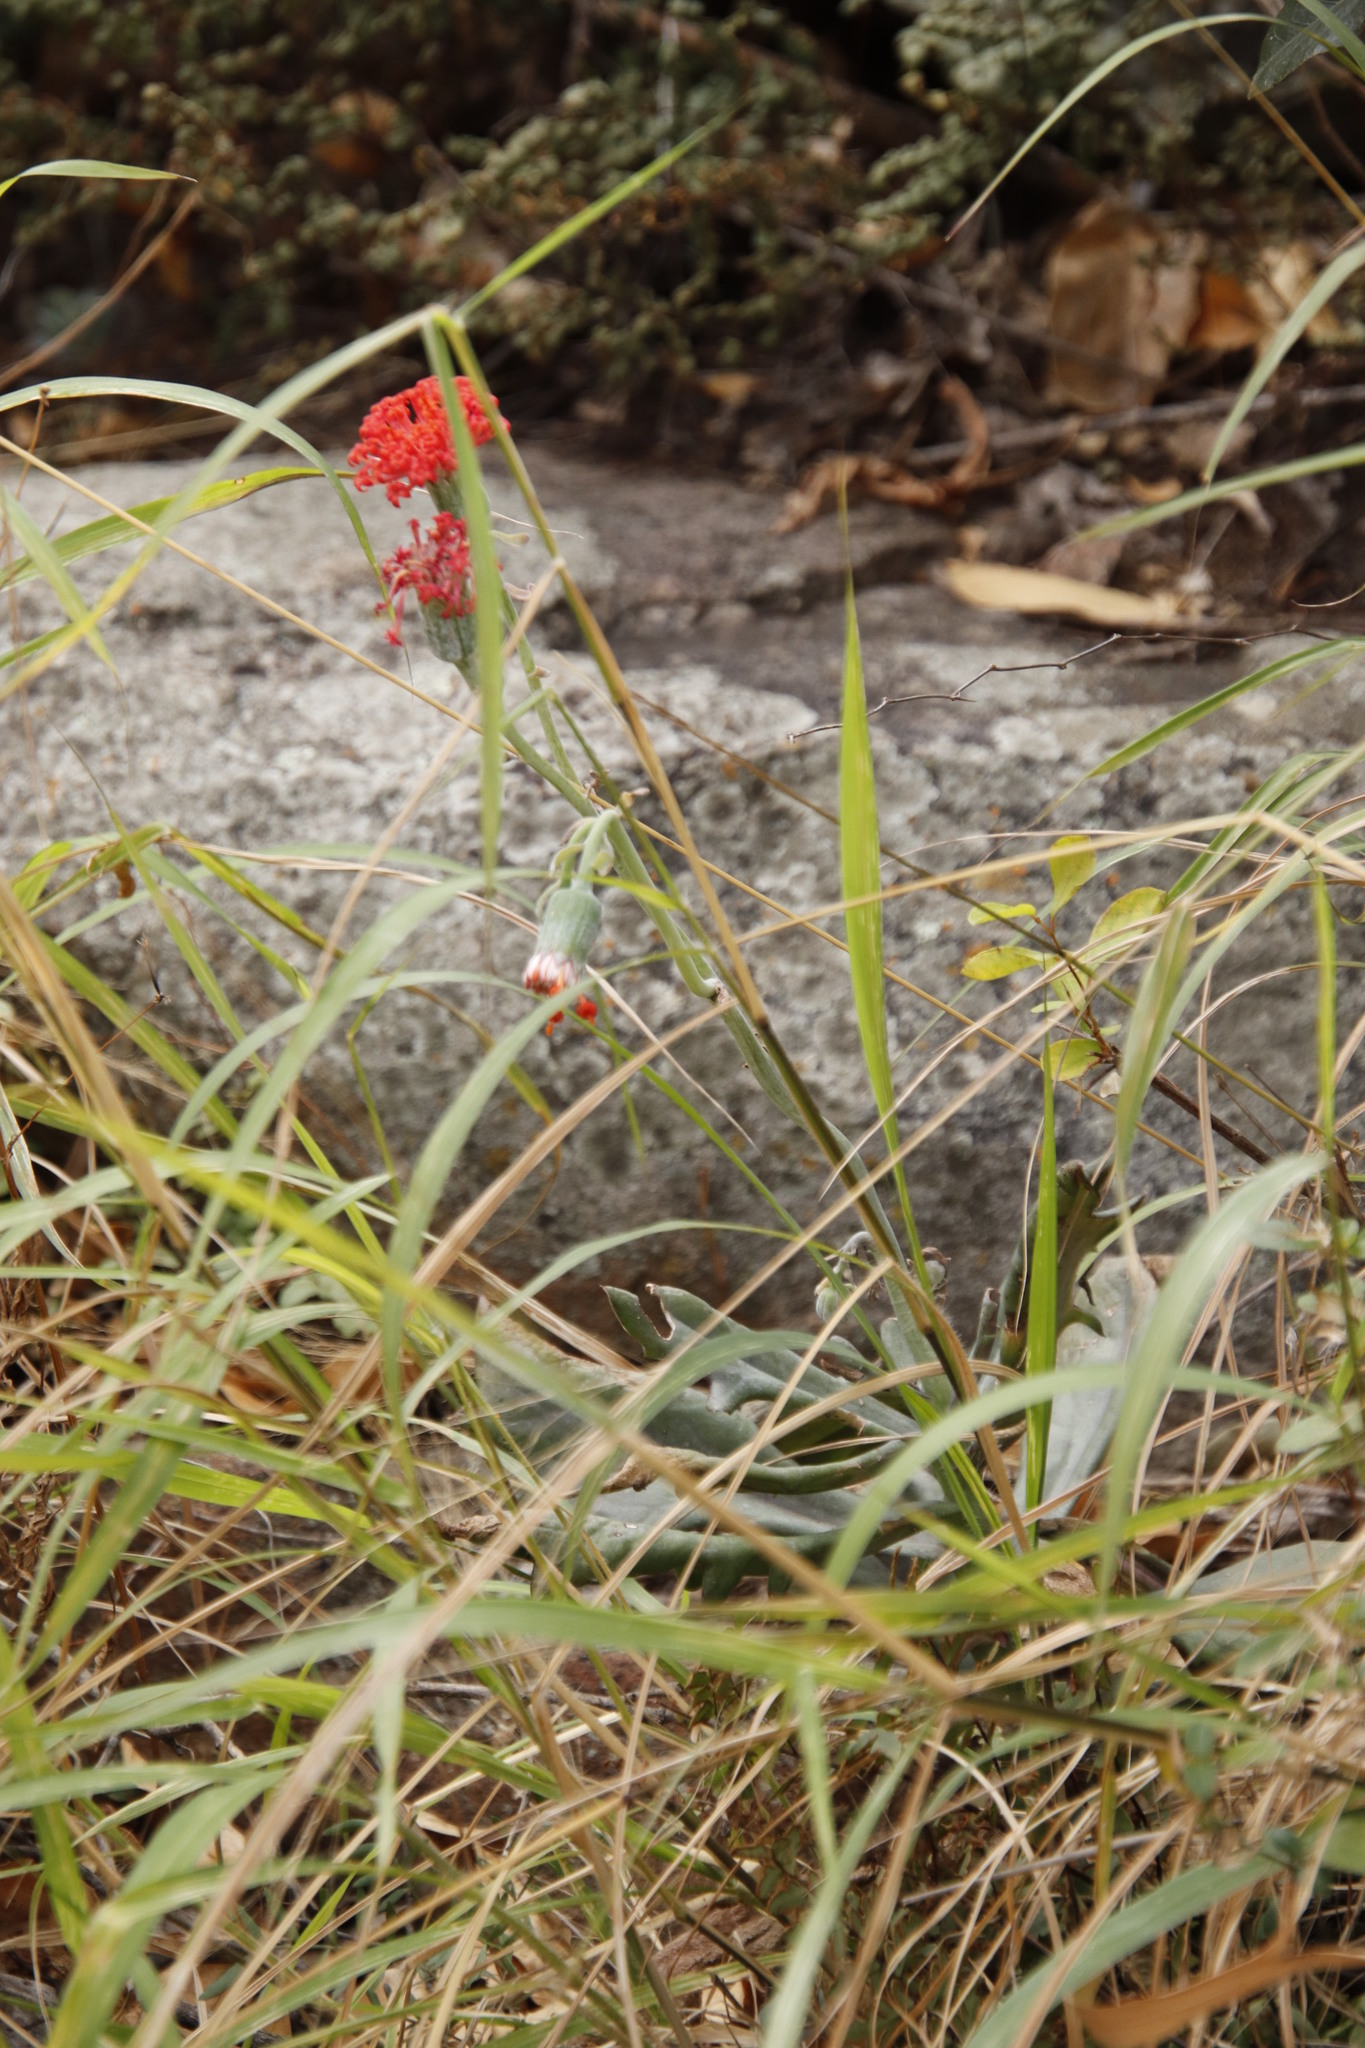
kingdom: Plantae
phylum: Tracheophyta
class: Magnoliopsida
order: Asterales
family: Asteraceae
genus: Kleinia
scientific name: Kleinia fulgens
